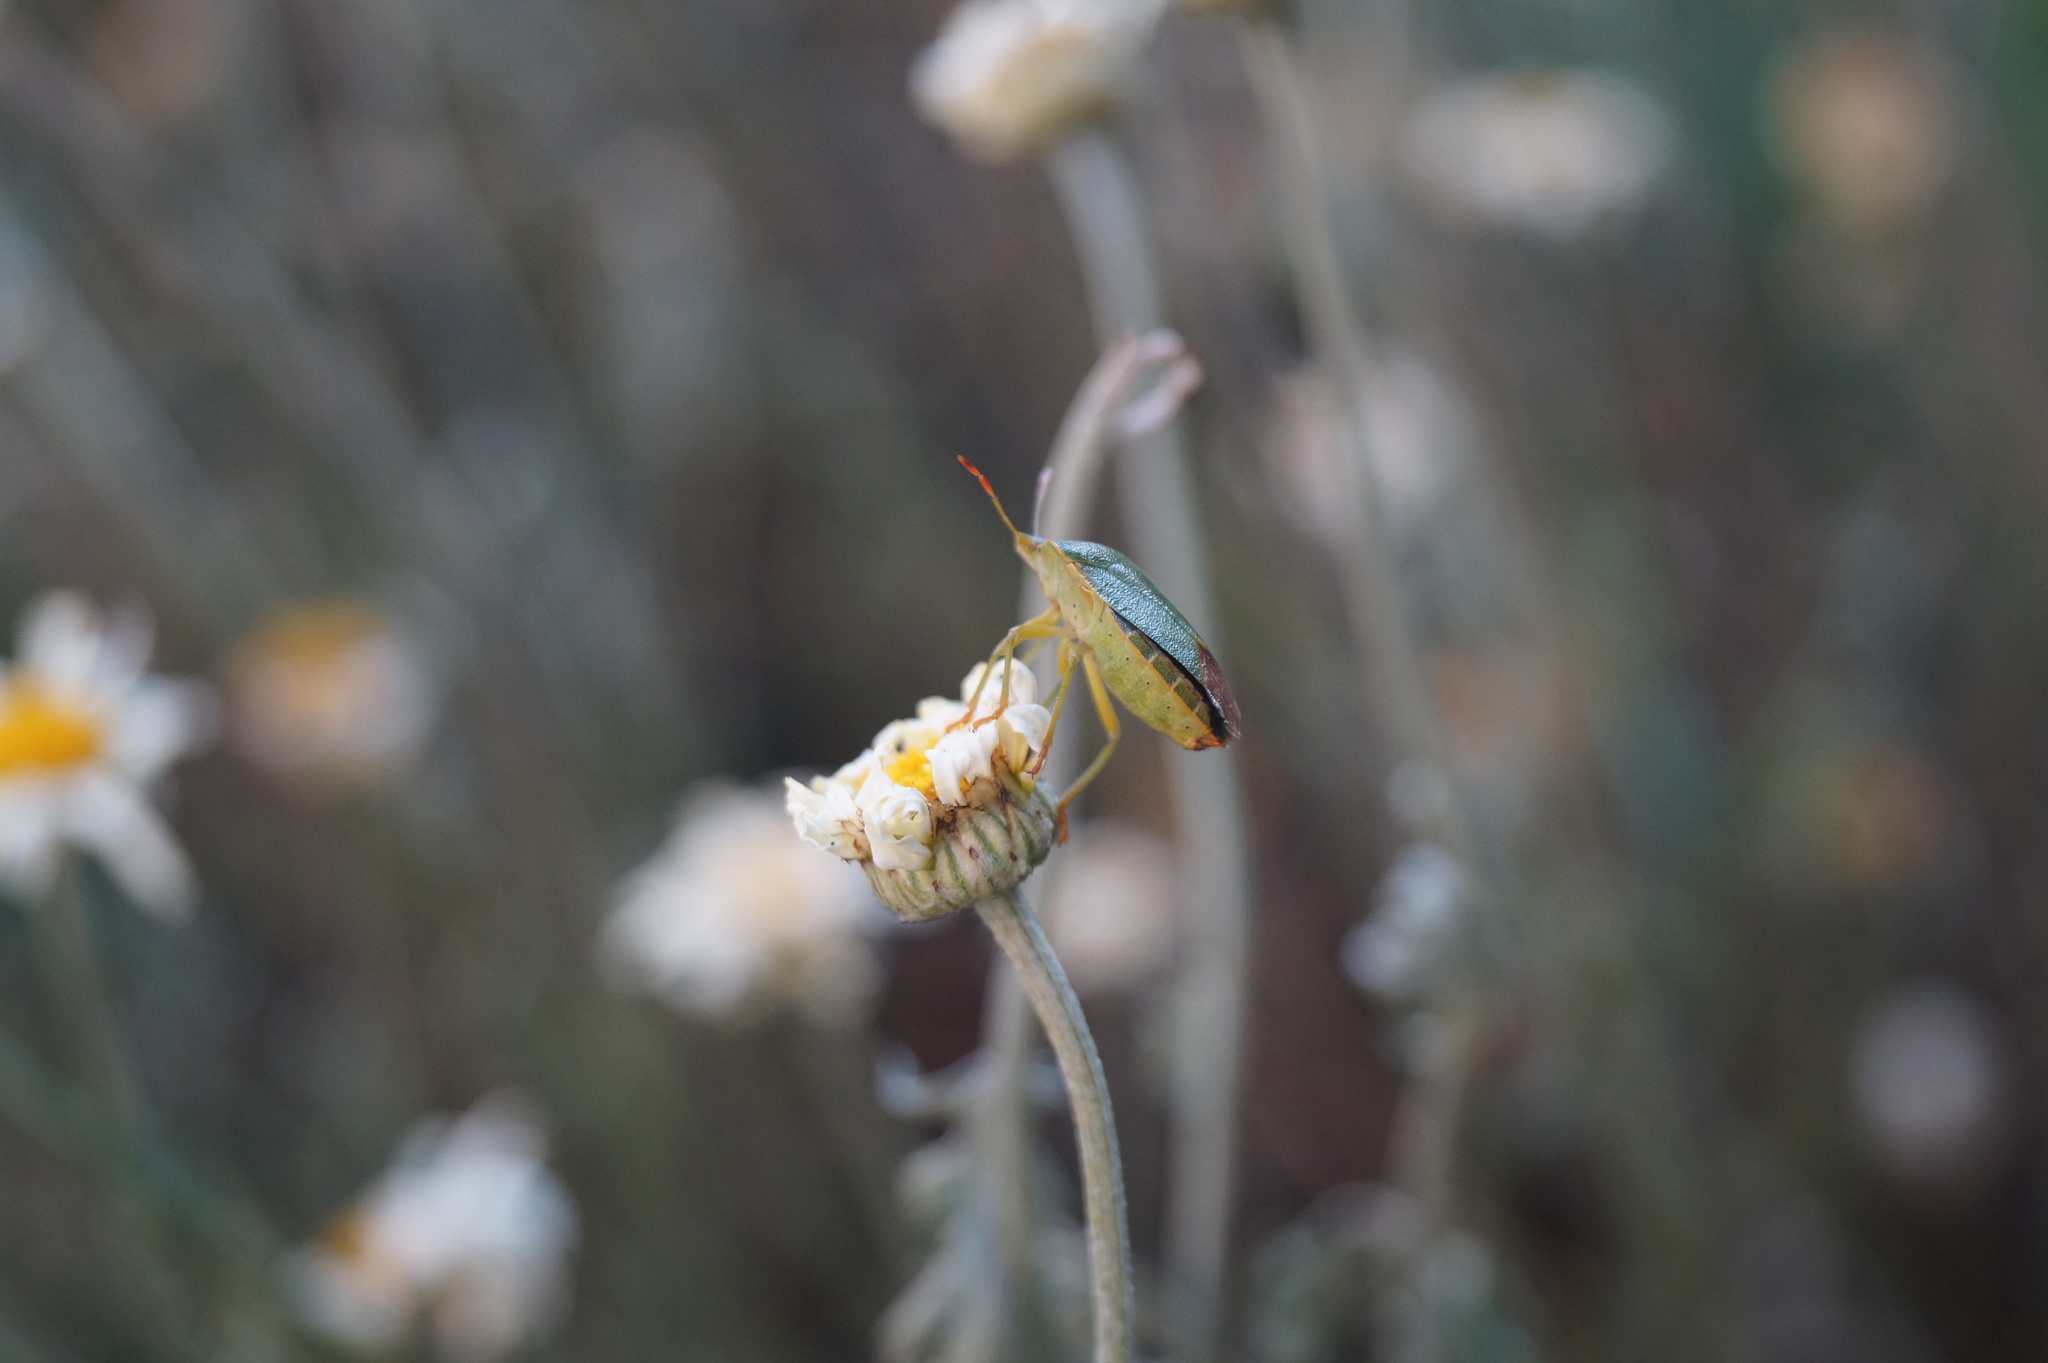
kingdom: Animalia
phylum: Arthropoda
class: Insecta
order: Hemiptera
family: Pentatomidae
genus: Palomena
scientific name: Palomena prasina
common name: Green shieldbug
